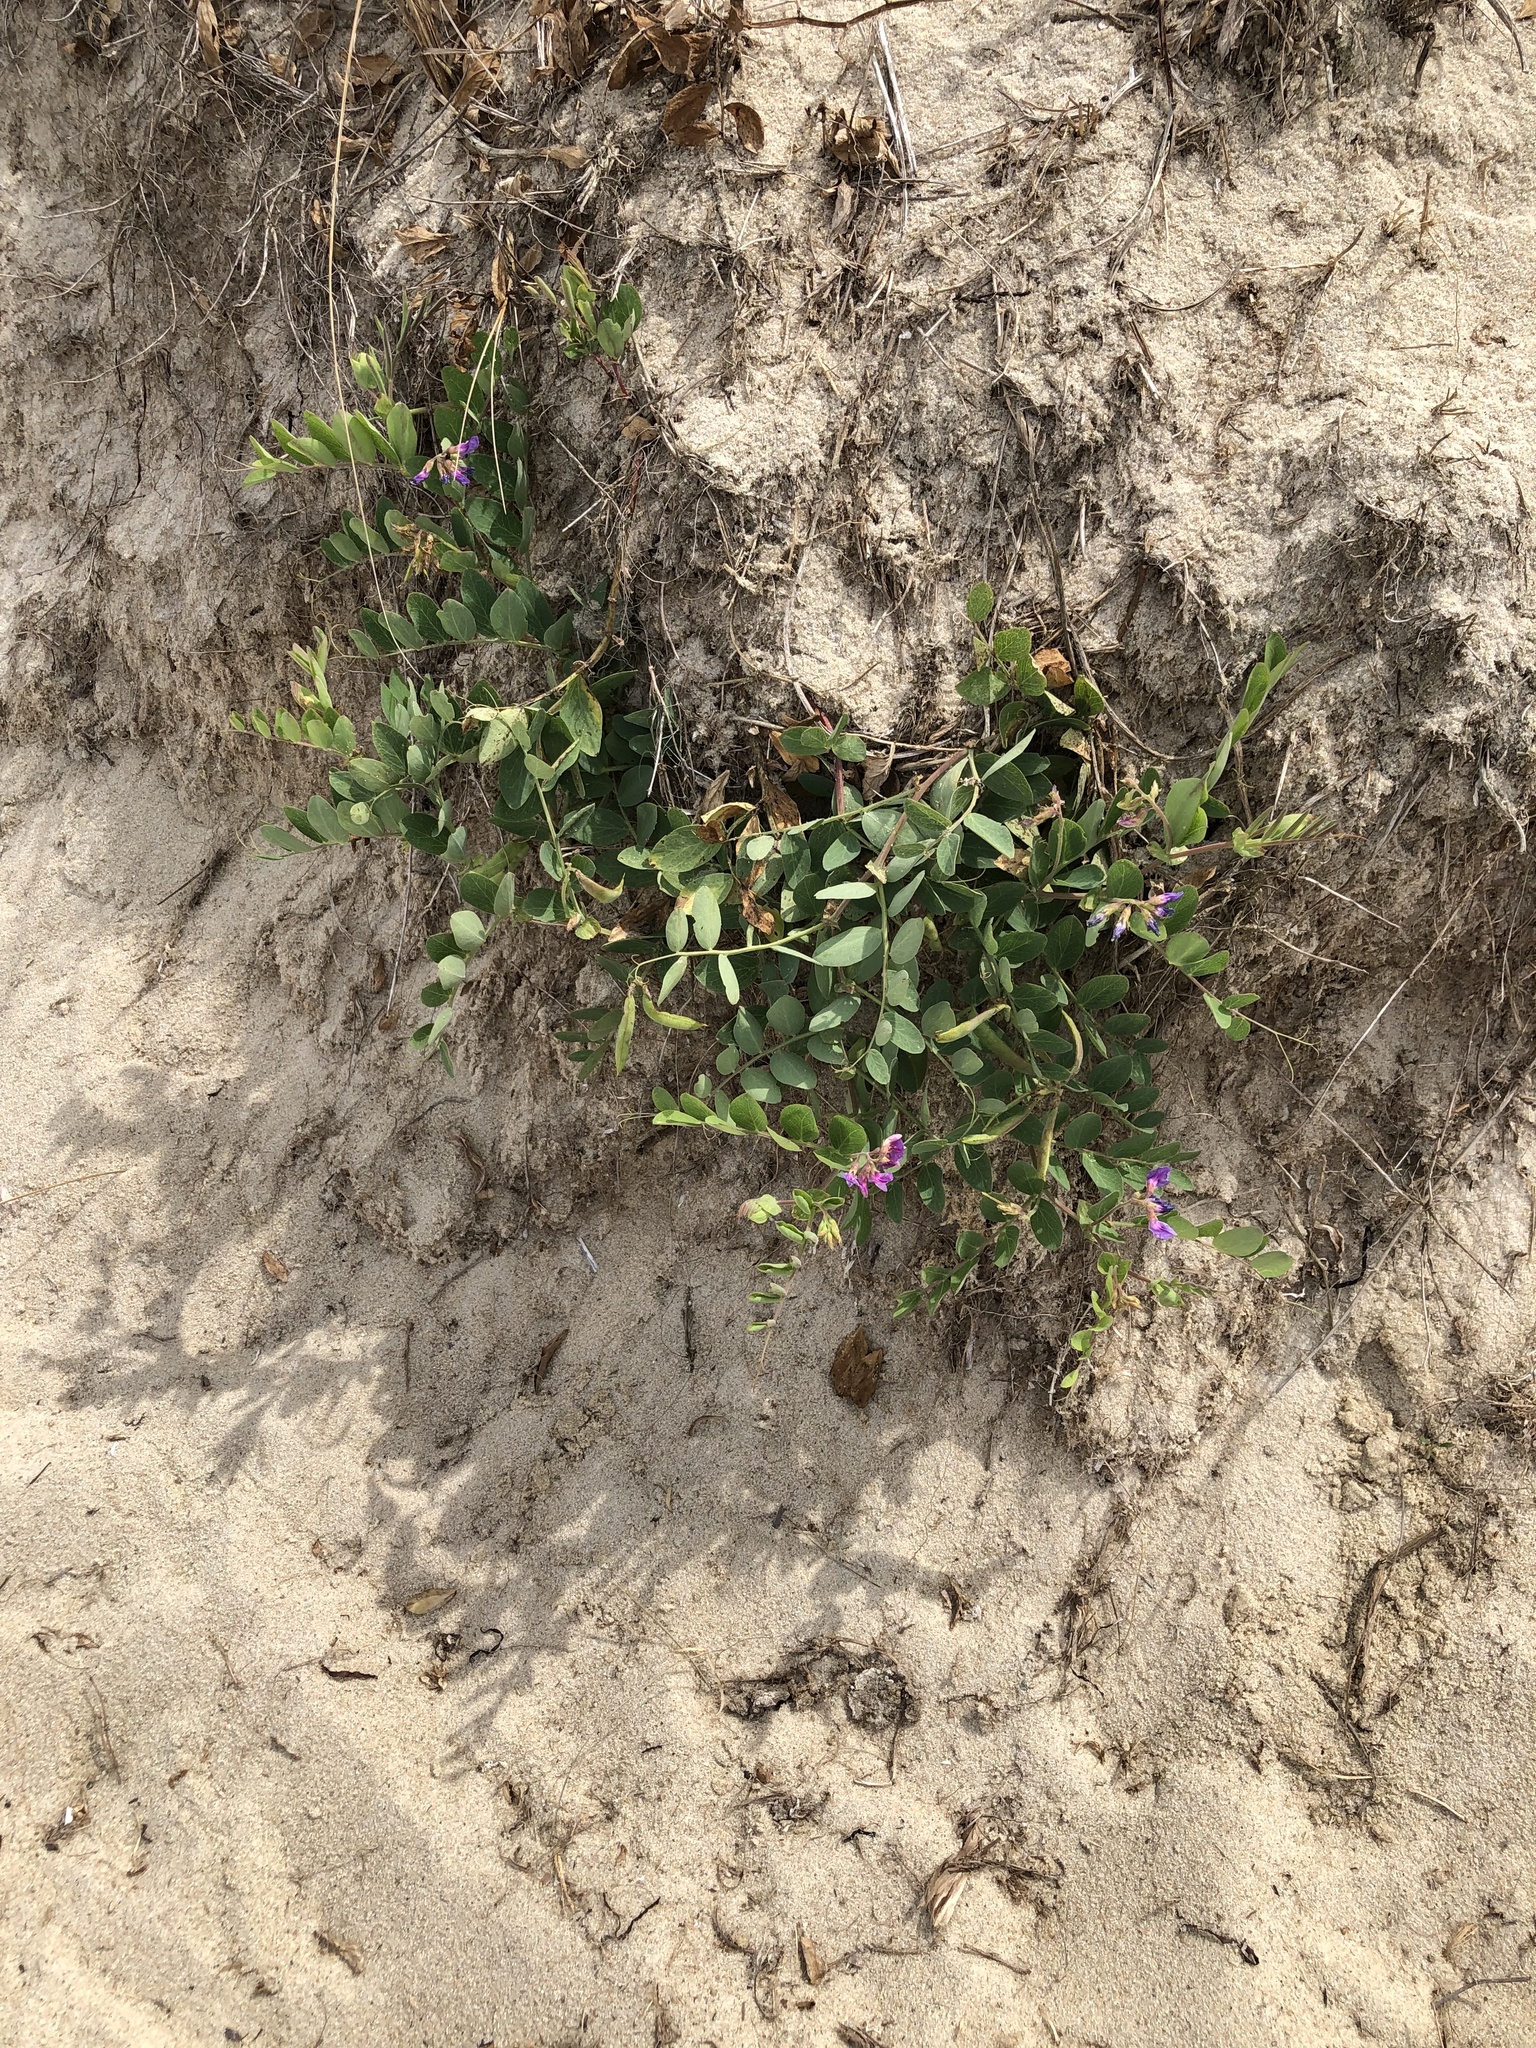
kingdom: Plantae
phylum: Tracheophyta
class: Magnoliopsida
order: Fabales
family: Fabaceae
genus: Lathyrus
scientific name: Lathyrus japonicus
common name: Sea pea
